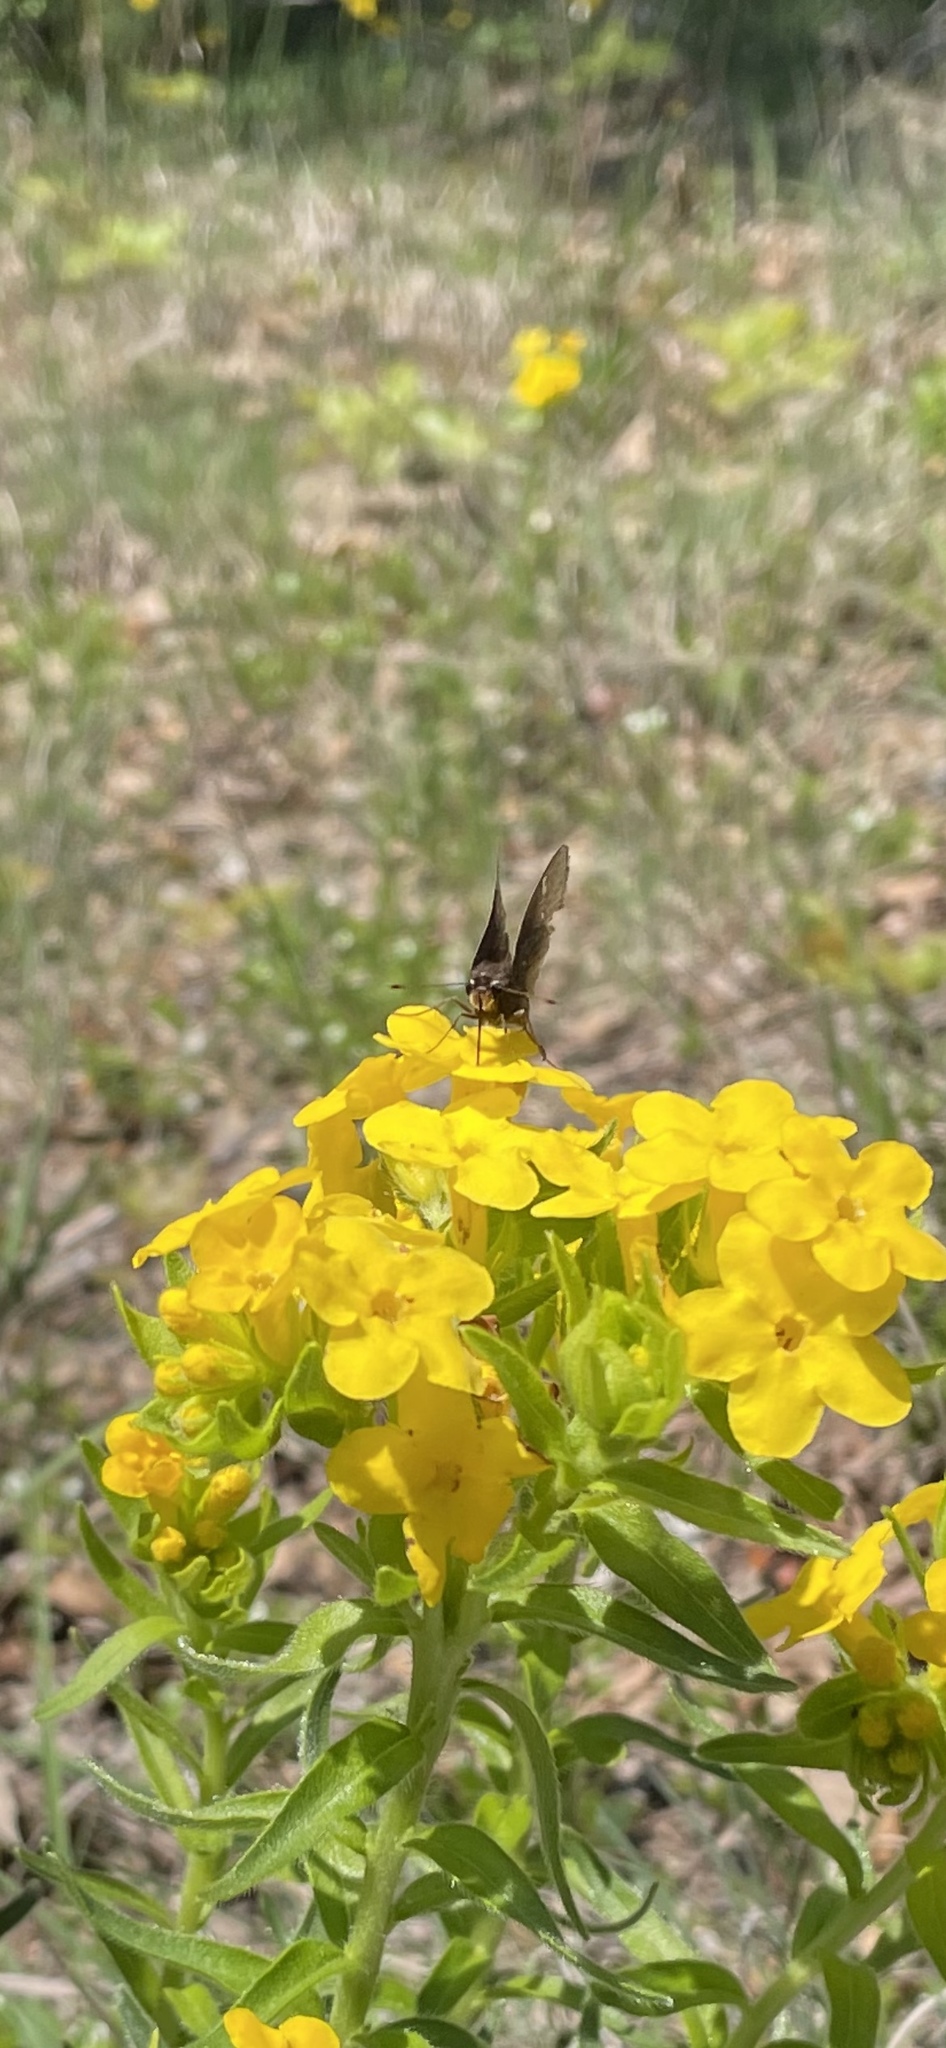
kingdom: Animalia
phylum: Arthropoda
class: Insecta
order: Lepidoptera
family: Hesperiidae
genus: Atrytonopsis
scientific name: Atrytonopsis hianna
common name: Dusted skipper
